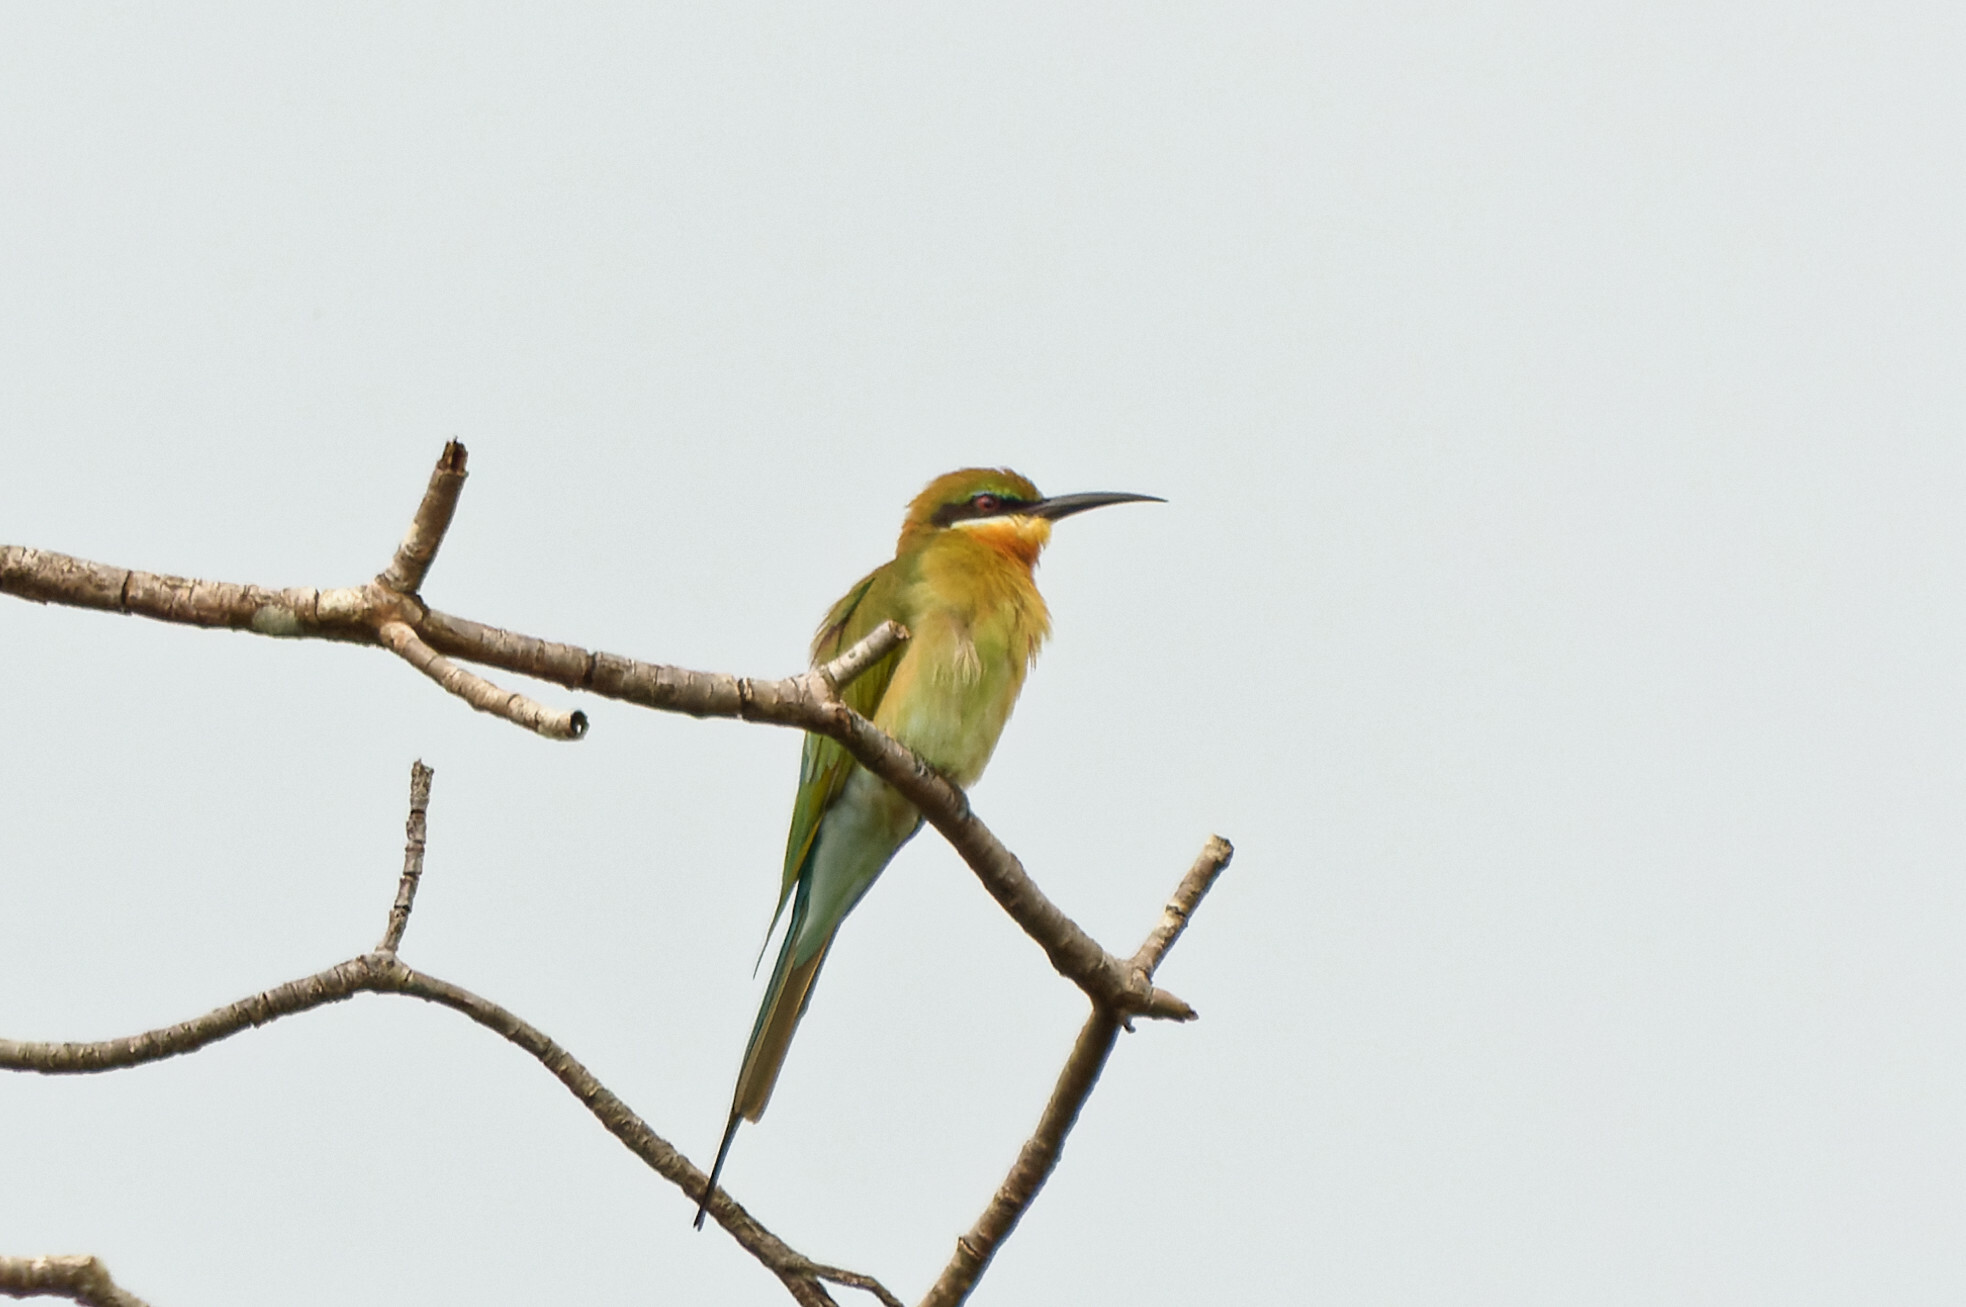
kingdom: Animalia
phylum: Chordata
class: Aves
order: Coraciiformes
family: Meropidae
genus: Merops
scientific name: Merops philippinus
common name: Blue-tailed bee-eater
